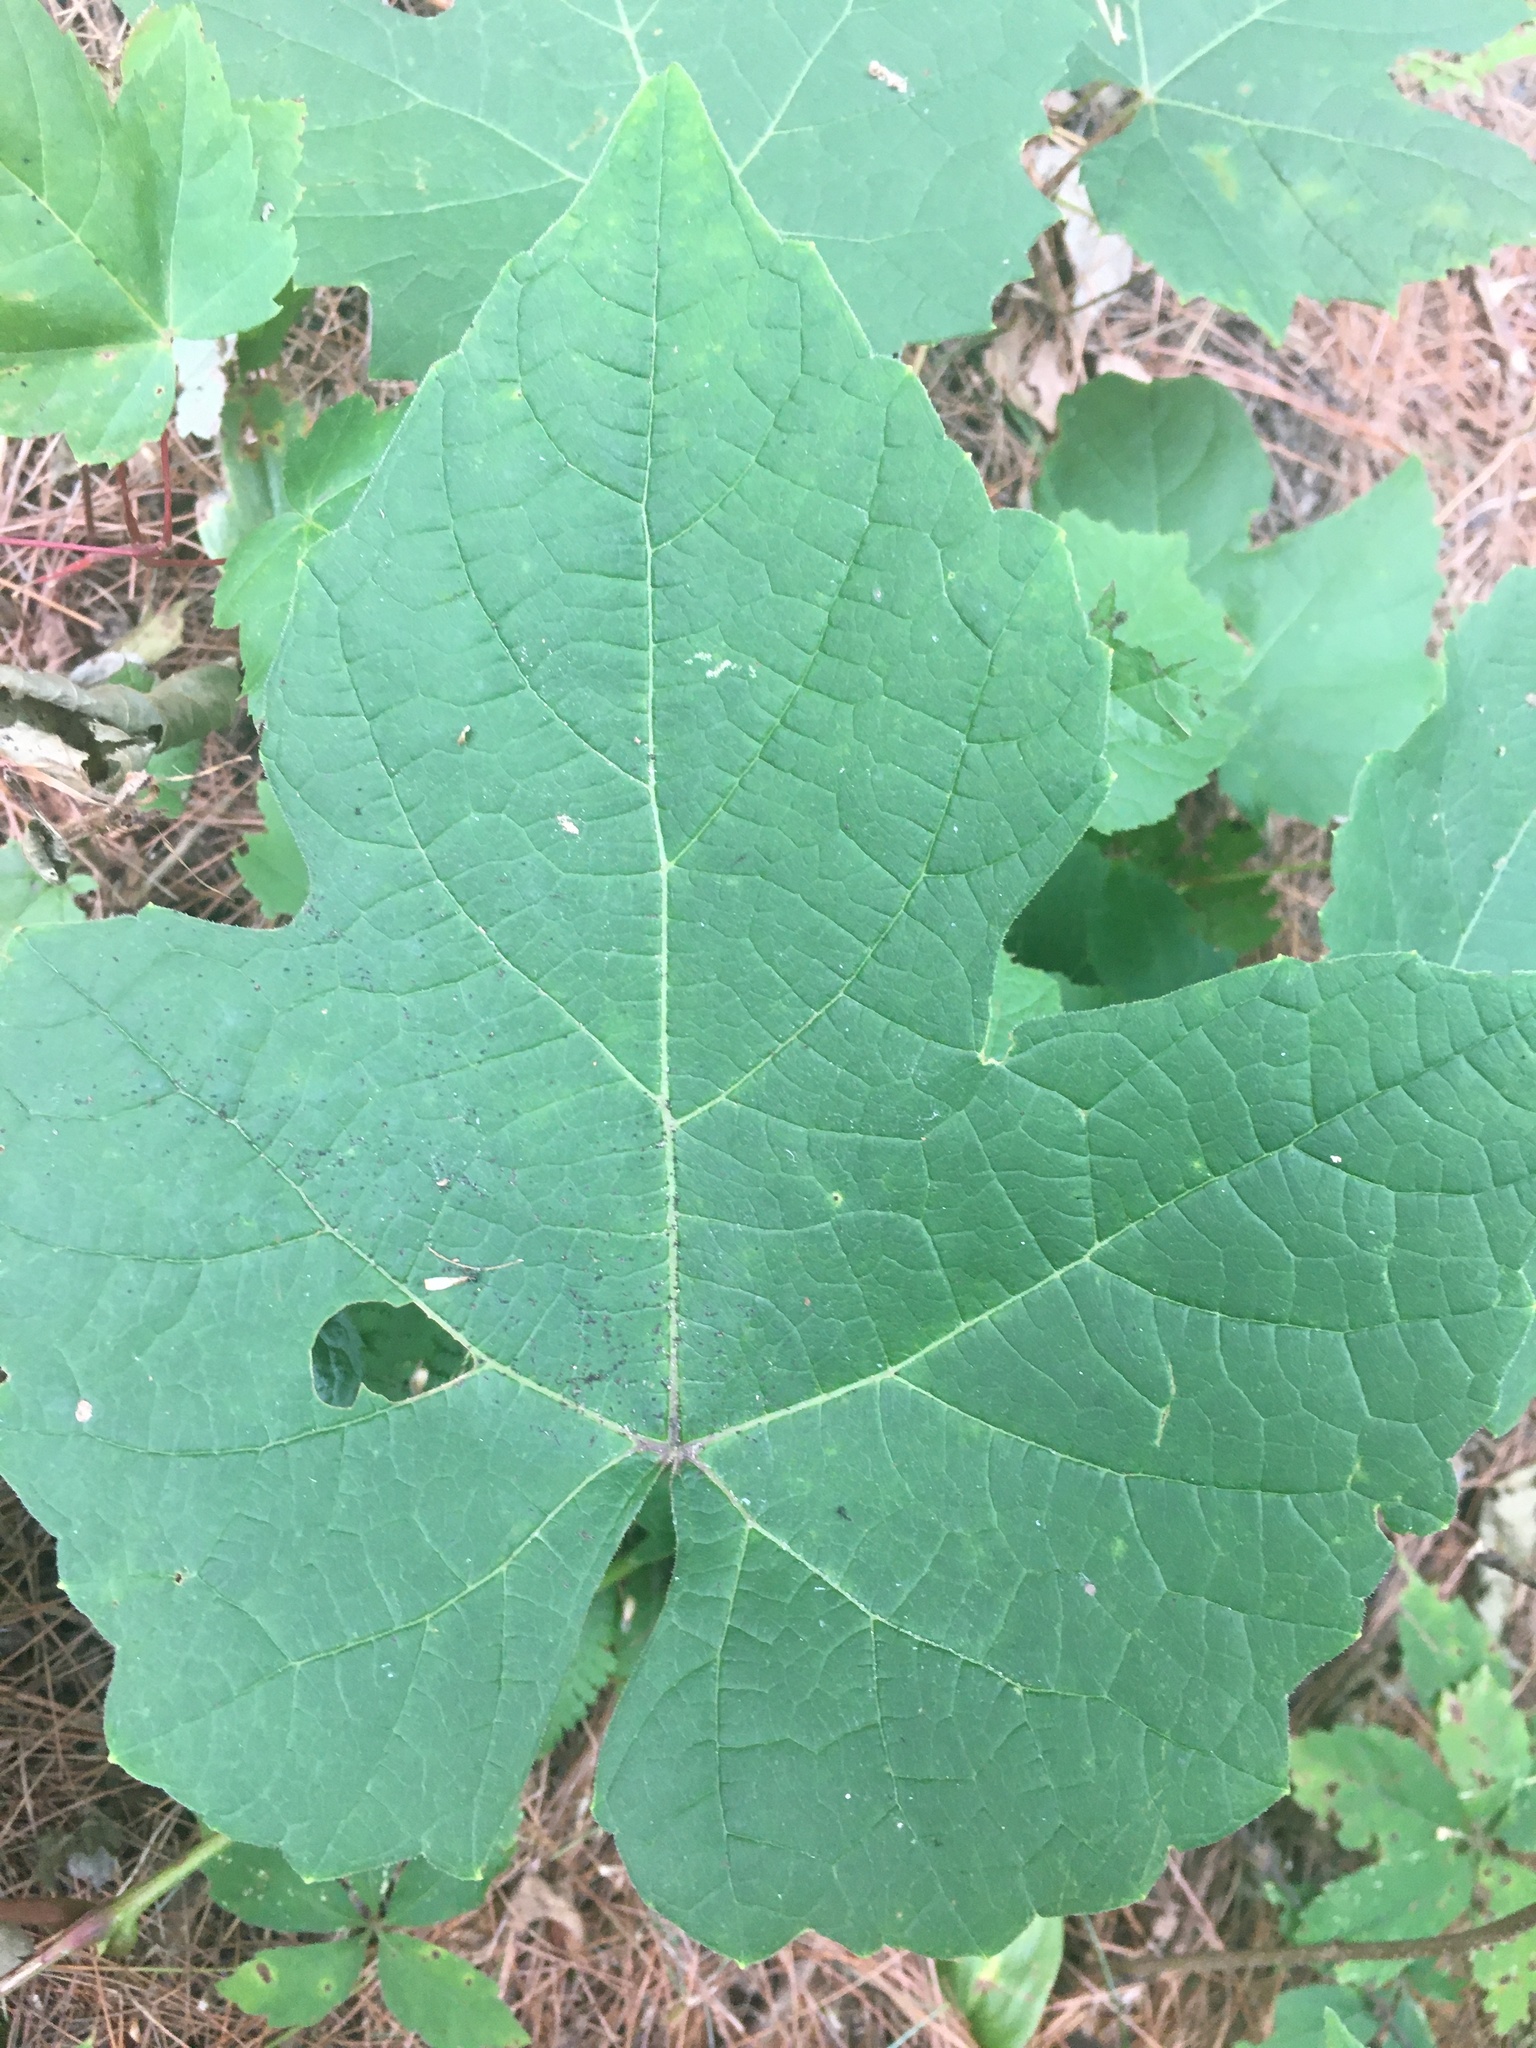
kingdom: Plantae
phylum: Tracheophyta
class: Magnoliopsida
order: Vitales
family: Vitaceae
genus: Vitis
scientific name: Vitis aestivalis
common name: Pigeon grape
